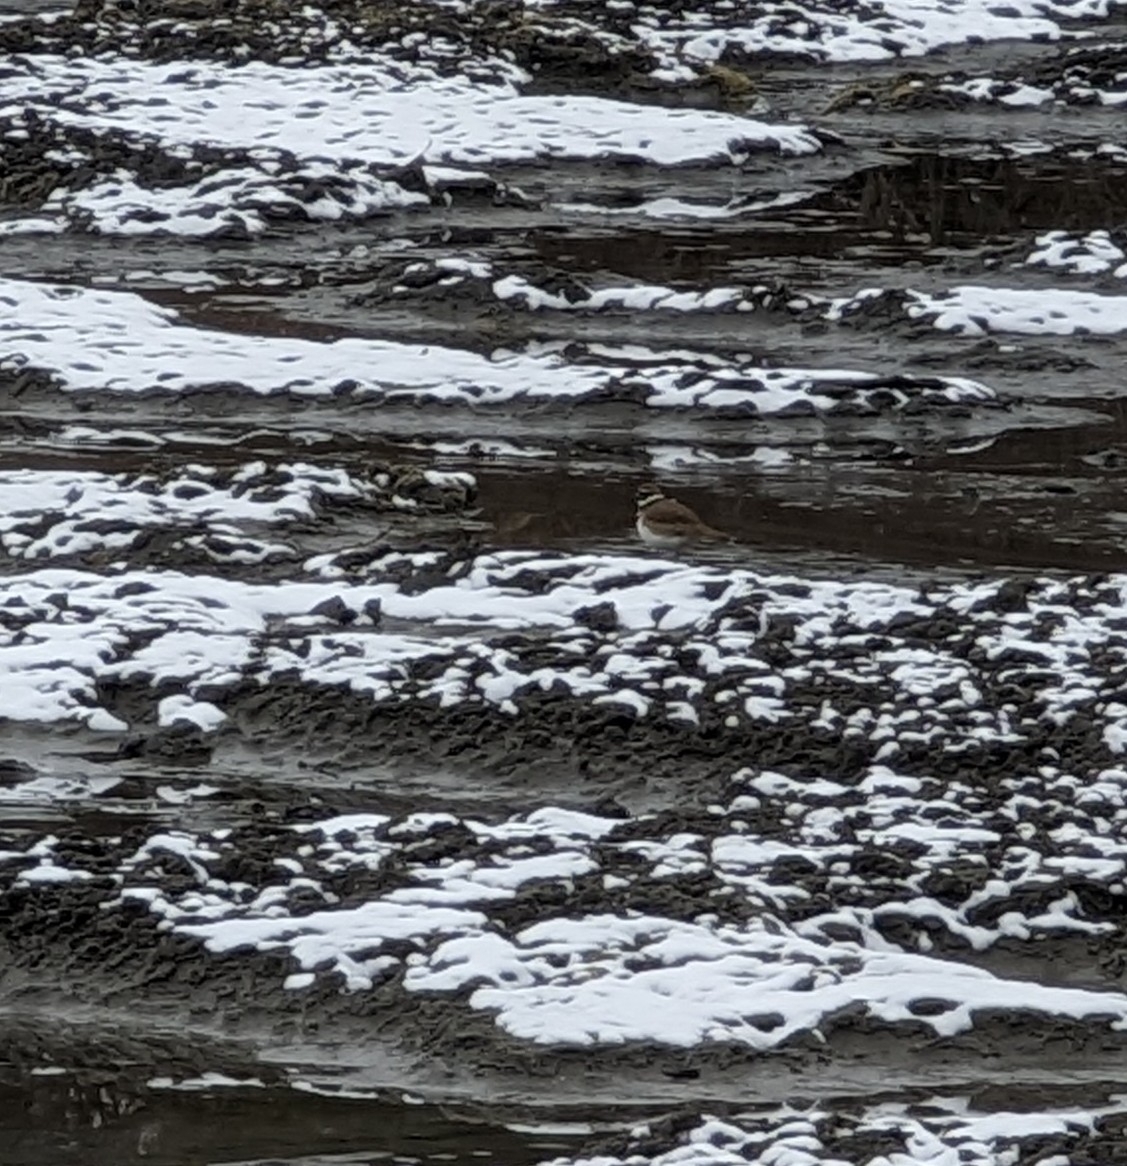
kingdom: Animalia
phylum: Chordata
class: Aves
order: Charadriiformes
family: Charadriidae
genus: Charadrius
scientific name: Charadrius vociferus
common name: Killdeer
